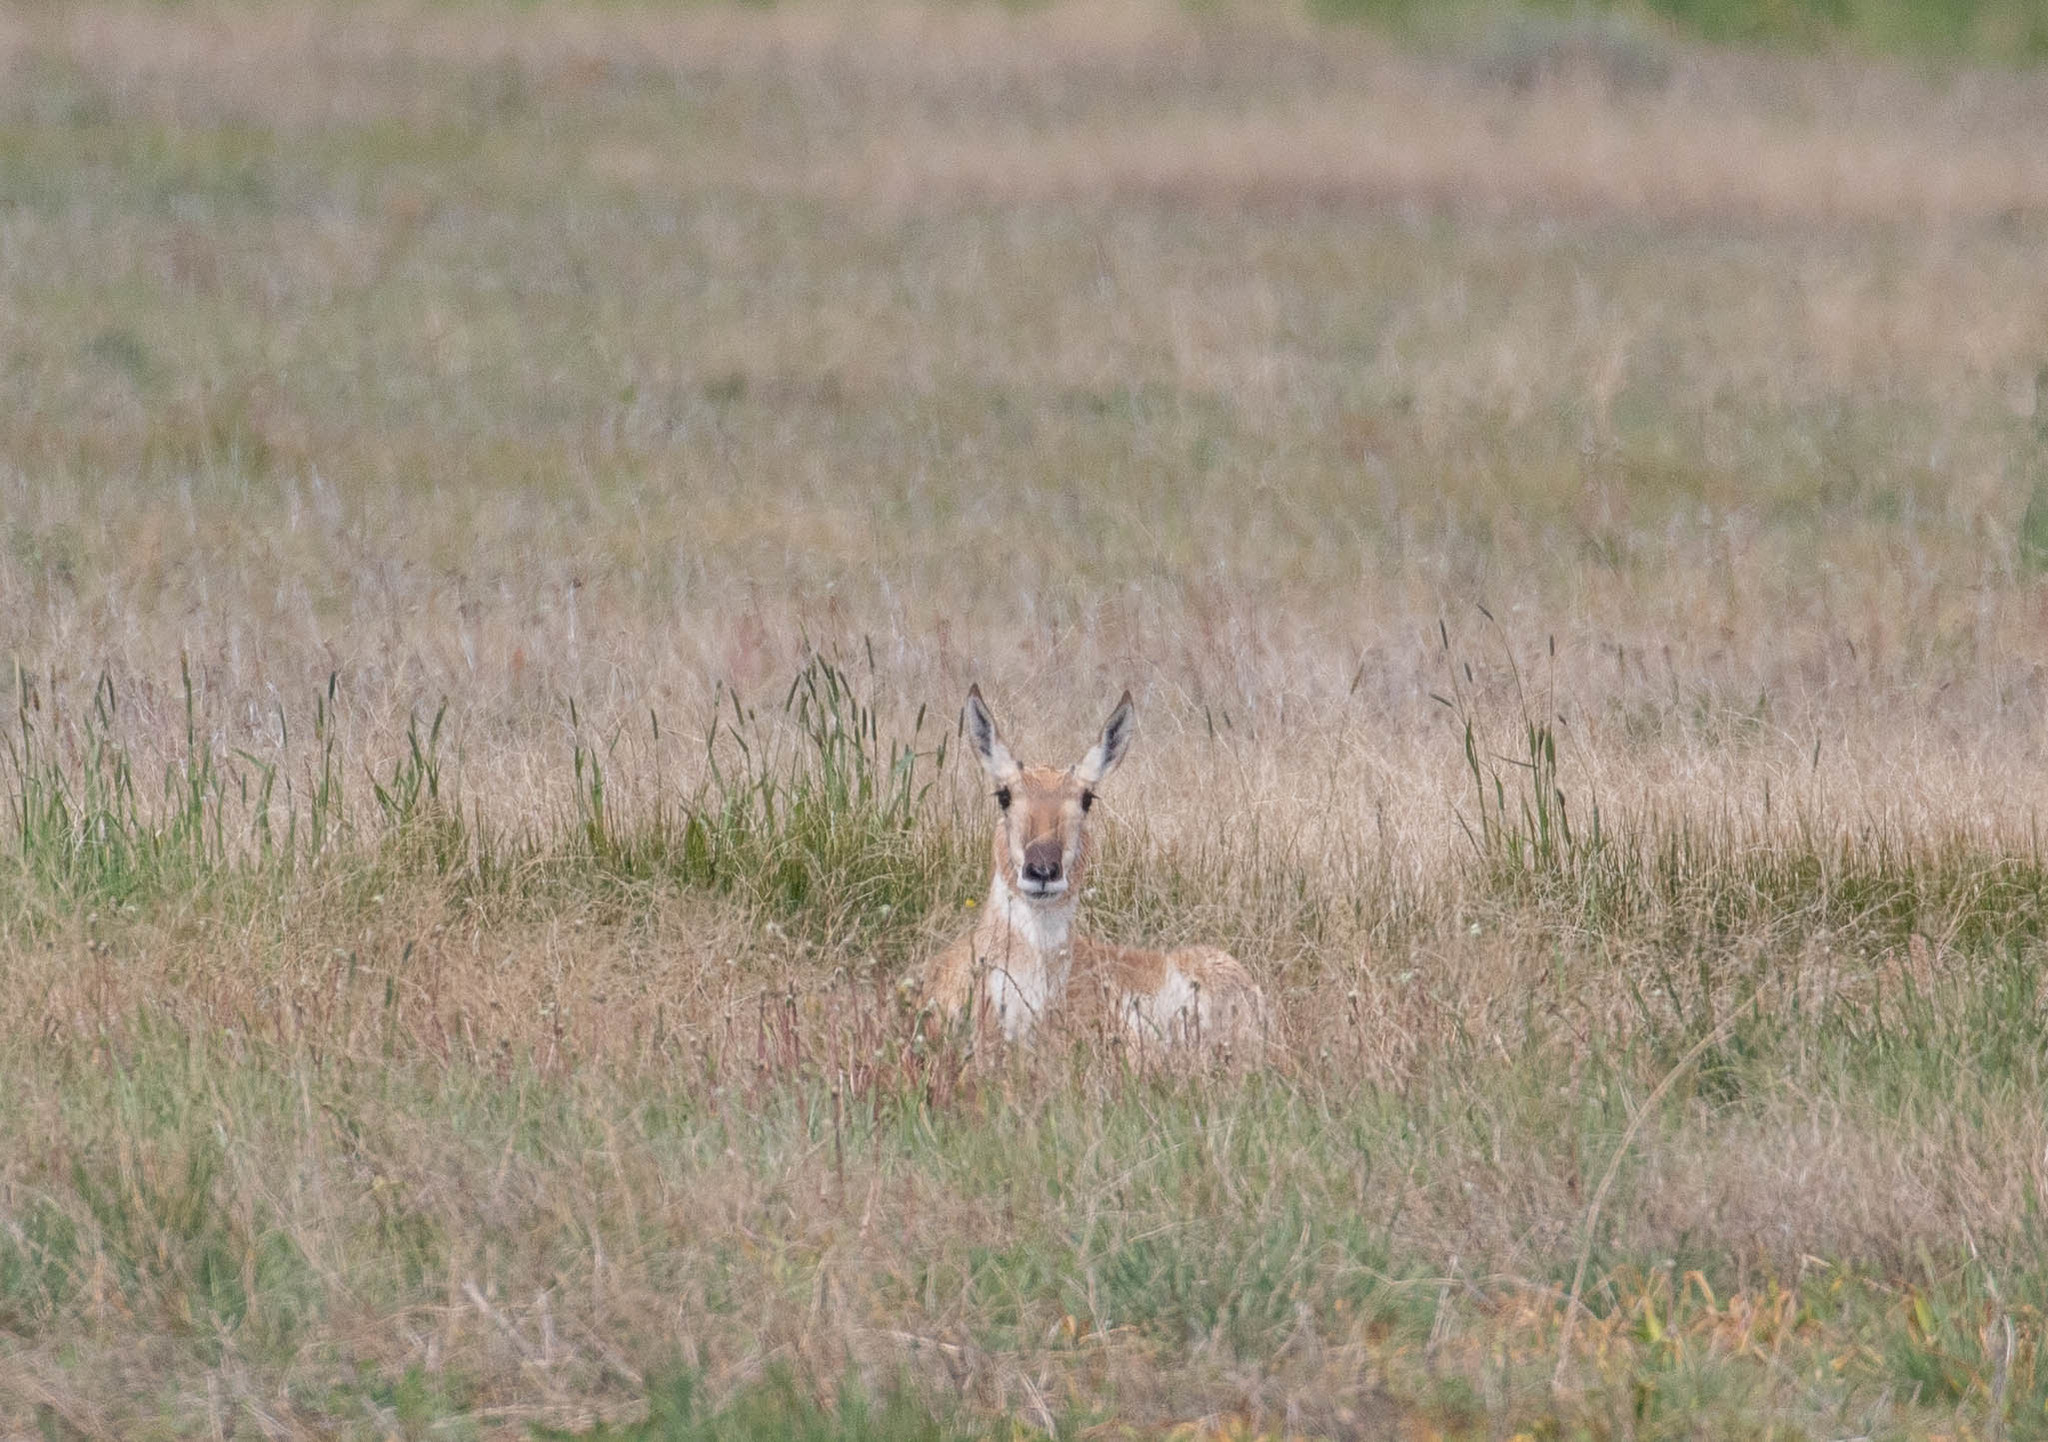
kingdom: Animalia
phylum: Chordata
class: Mammalia
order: Artiodactyla
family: Antilocapridae
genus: Antilocapra
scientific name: Antilocapra americana
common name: Pronghorn
